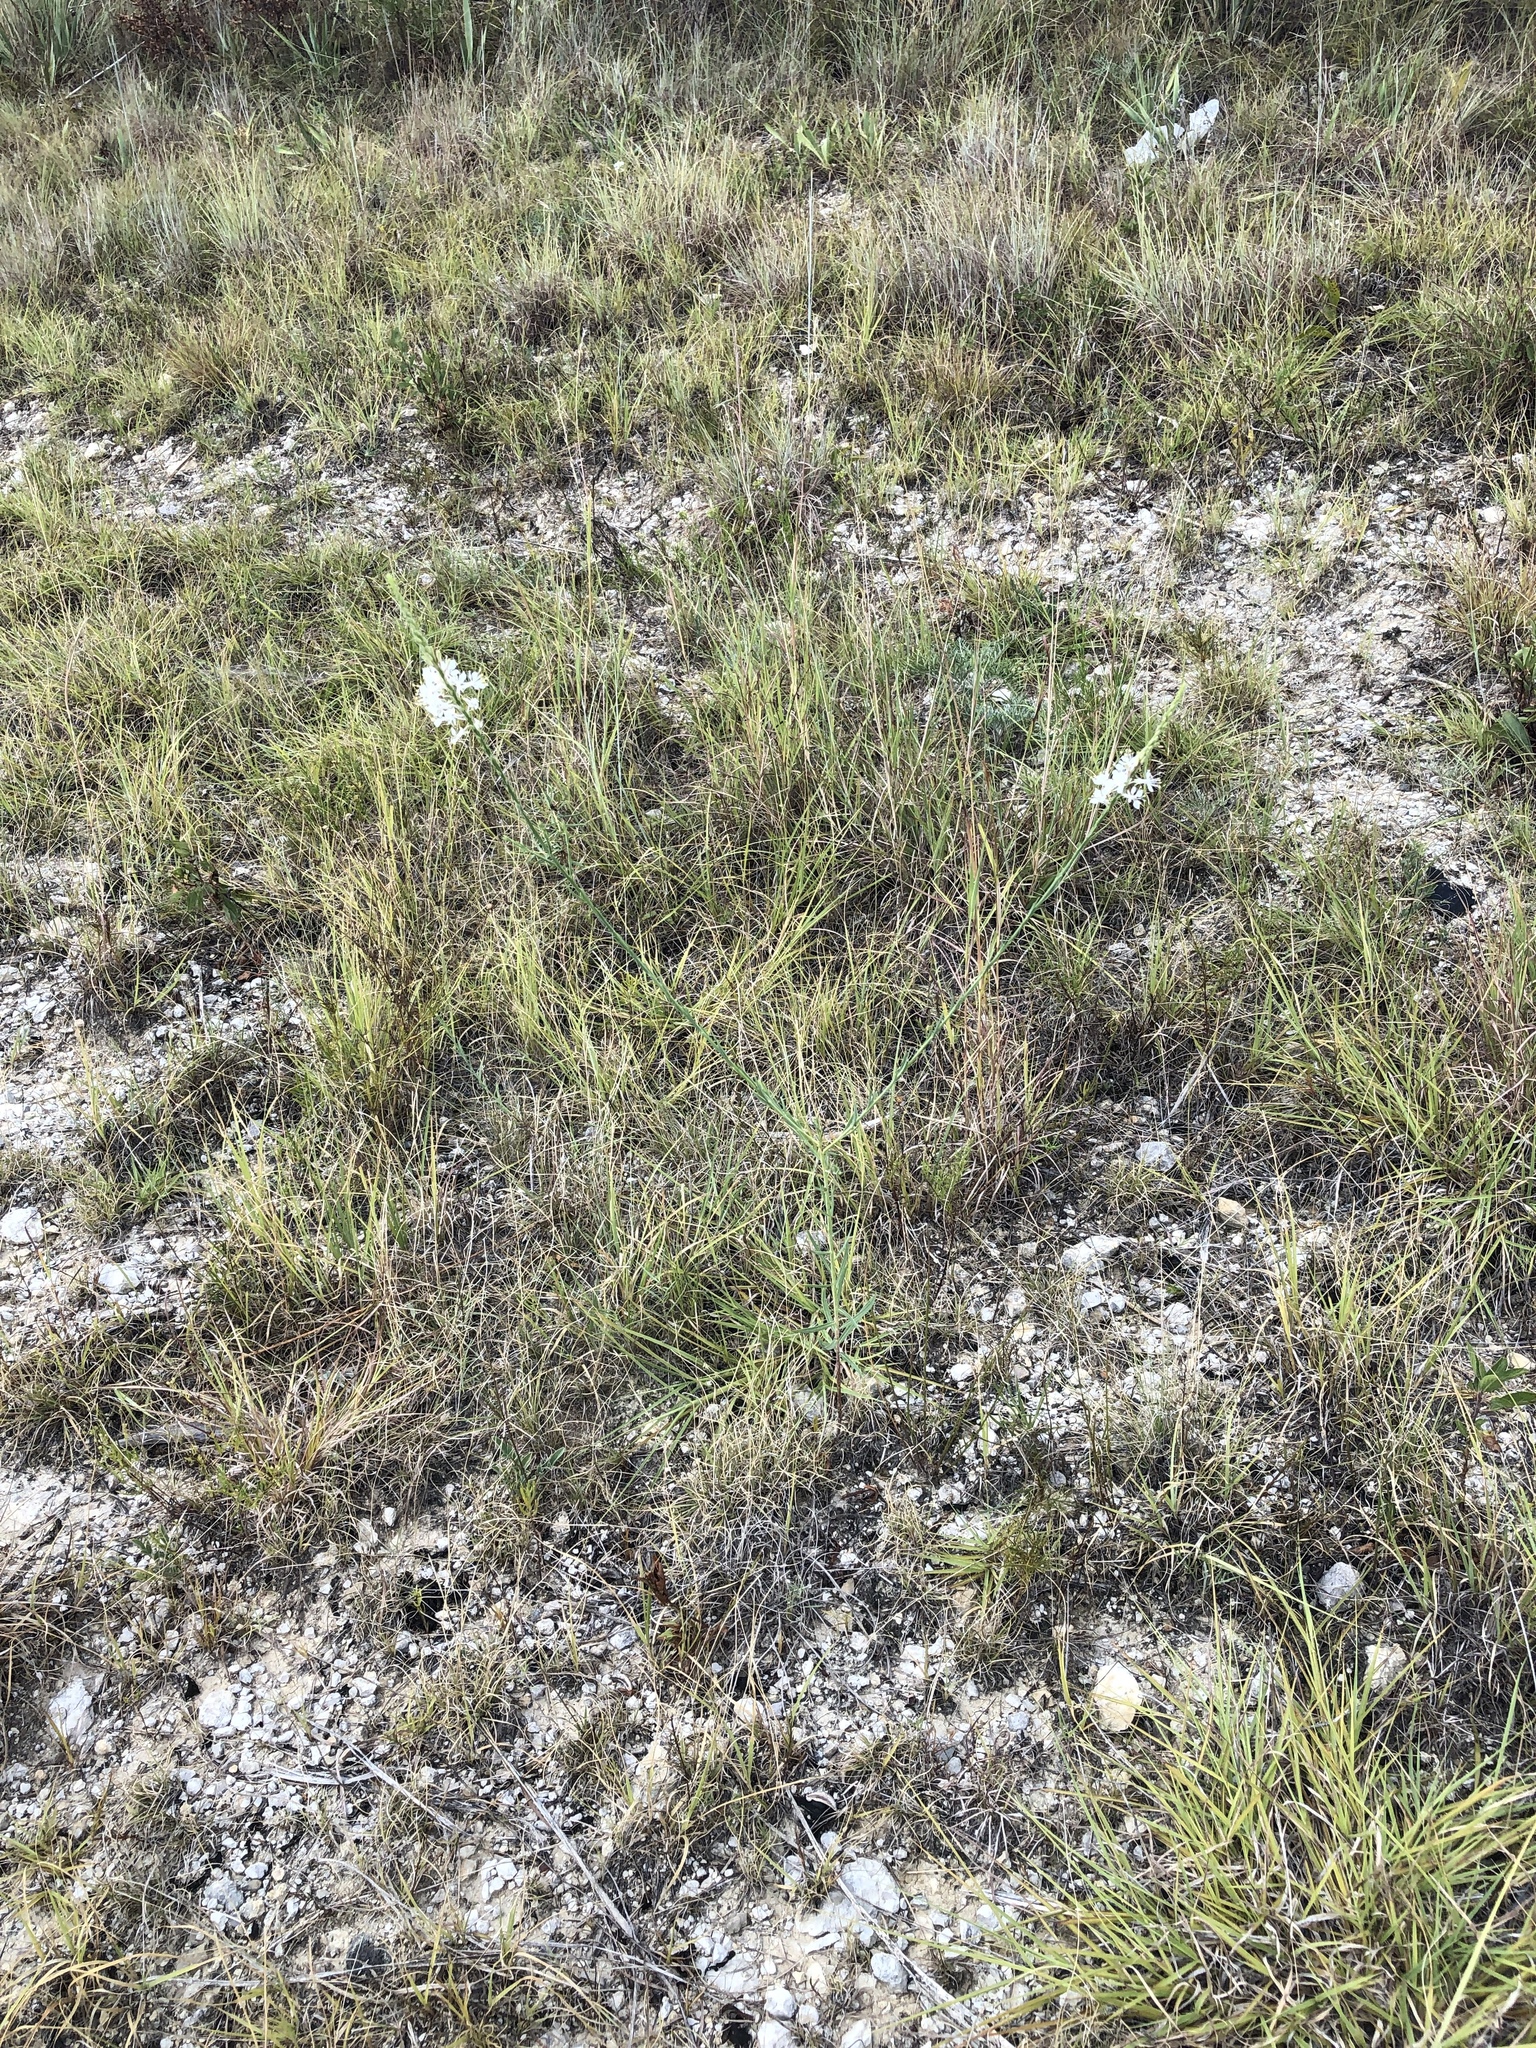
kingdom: Plantae
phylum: Tracheophyta
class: Magnoliopsida
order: Myrtales
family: Onagraceae
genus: Oenothera
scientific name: Oenothera glaucifolia
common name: False gaura
